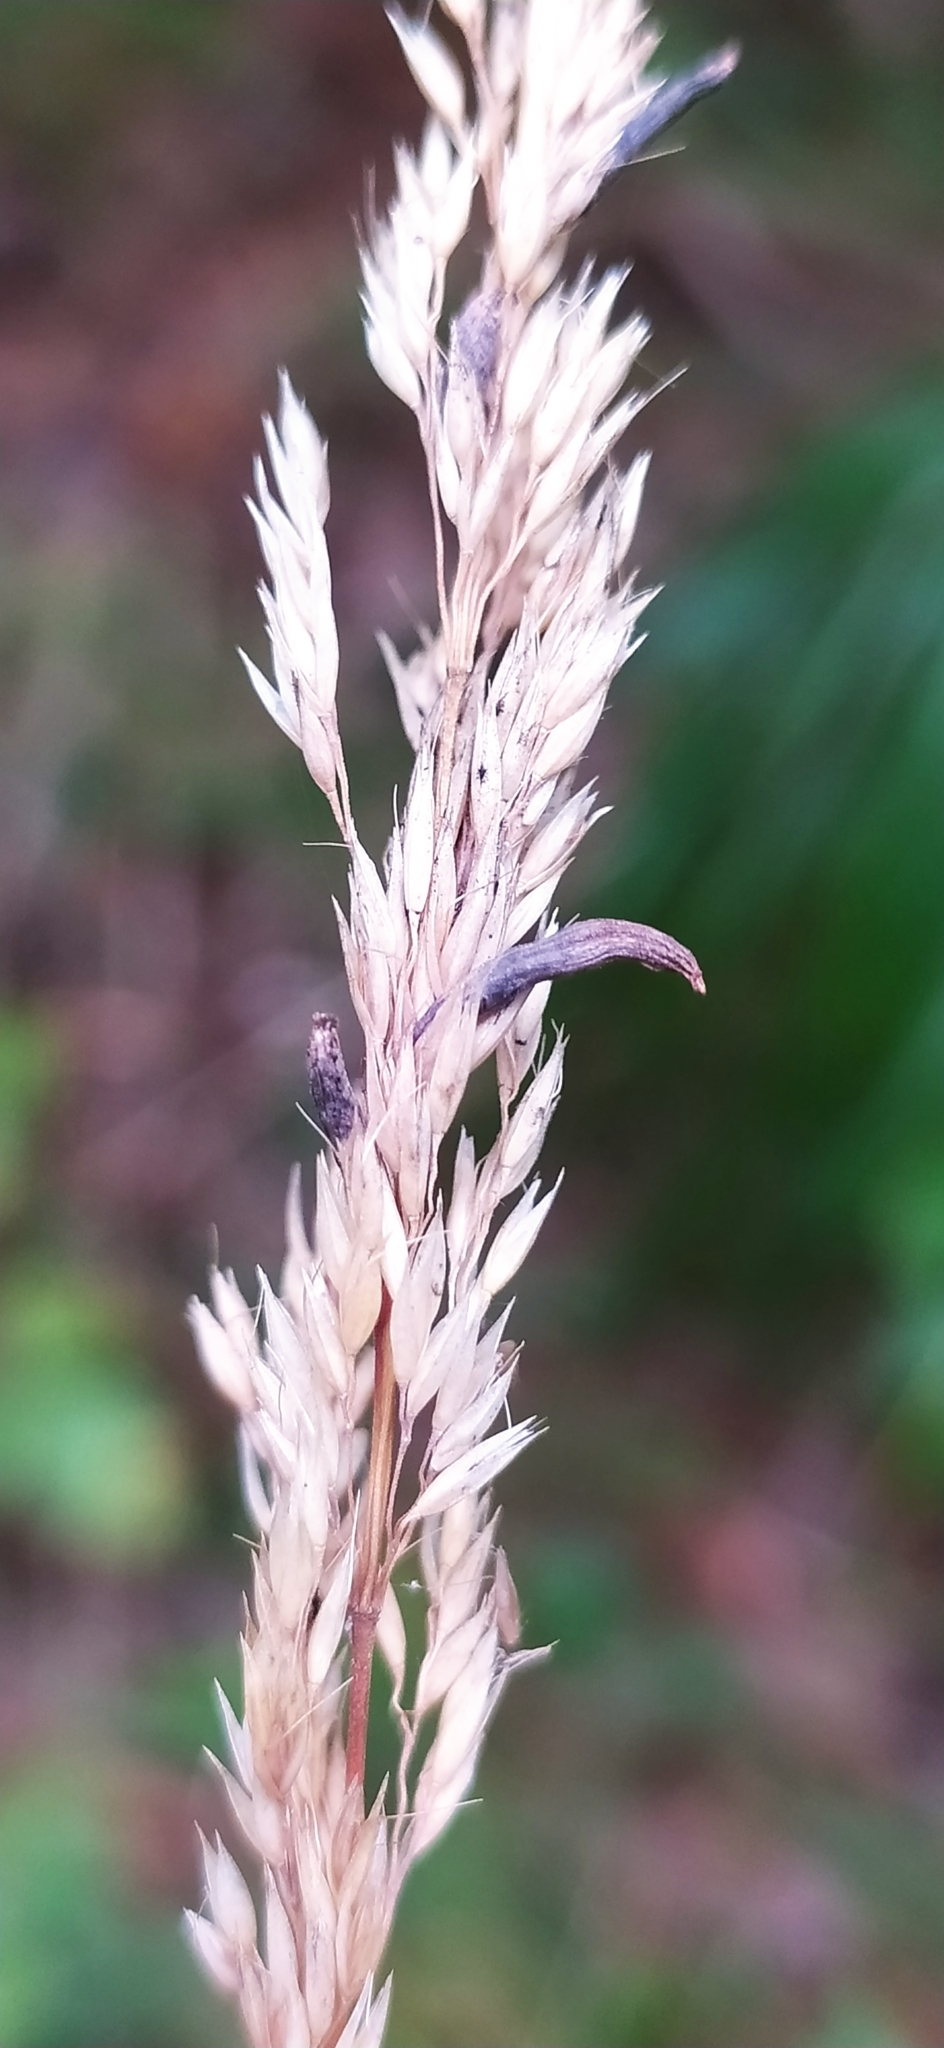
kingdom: Fungi
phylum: Ascomycota
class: Sordariomycetes
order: Hypocreales
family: Clavicipitaceae
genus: Claviceps
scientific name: Claviceps purpurea
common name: Rye ergot
